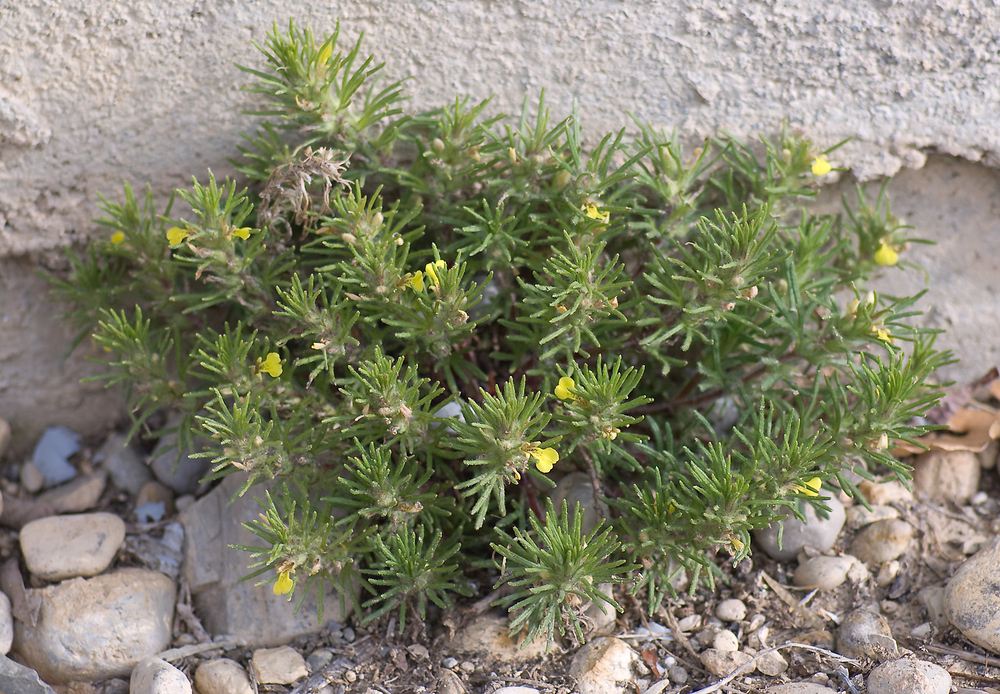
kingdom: Plantae
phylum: Tracheophyta
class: Magnoliopsida
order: Lamiales
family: Lamiaceae
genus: Ajuga
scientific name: Ajuga chamaepitys
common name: Ground-pine
